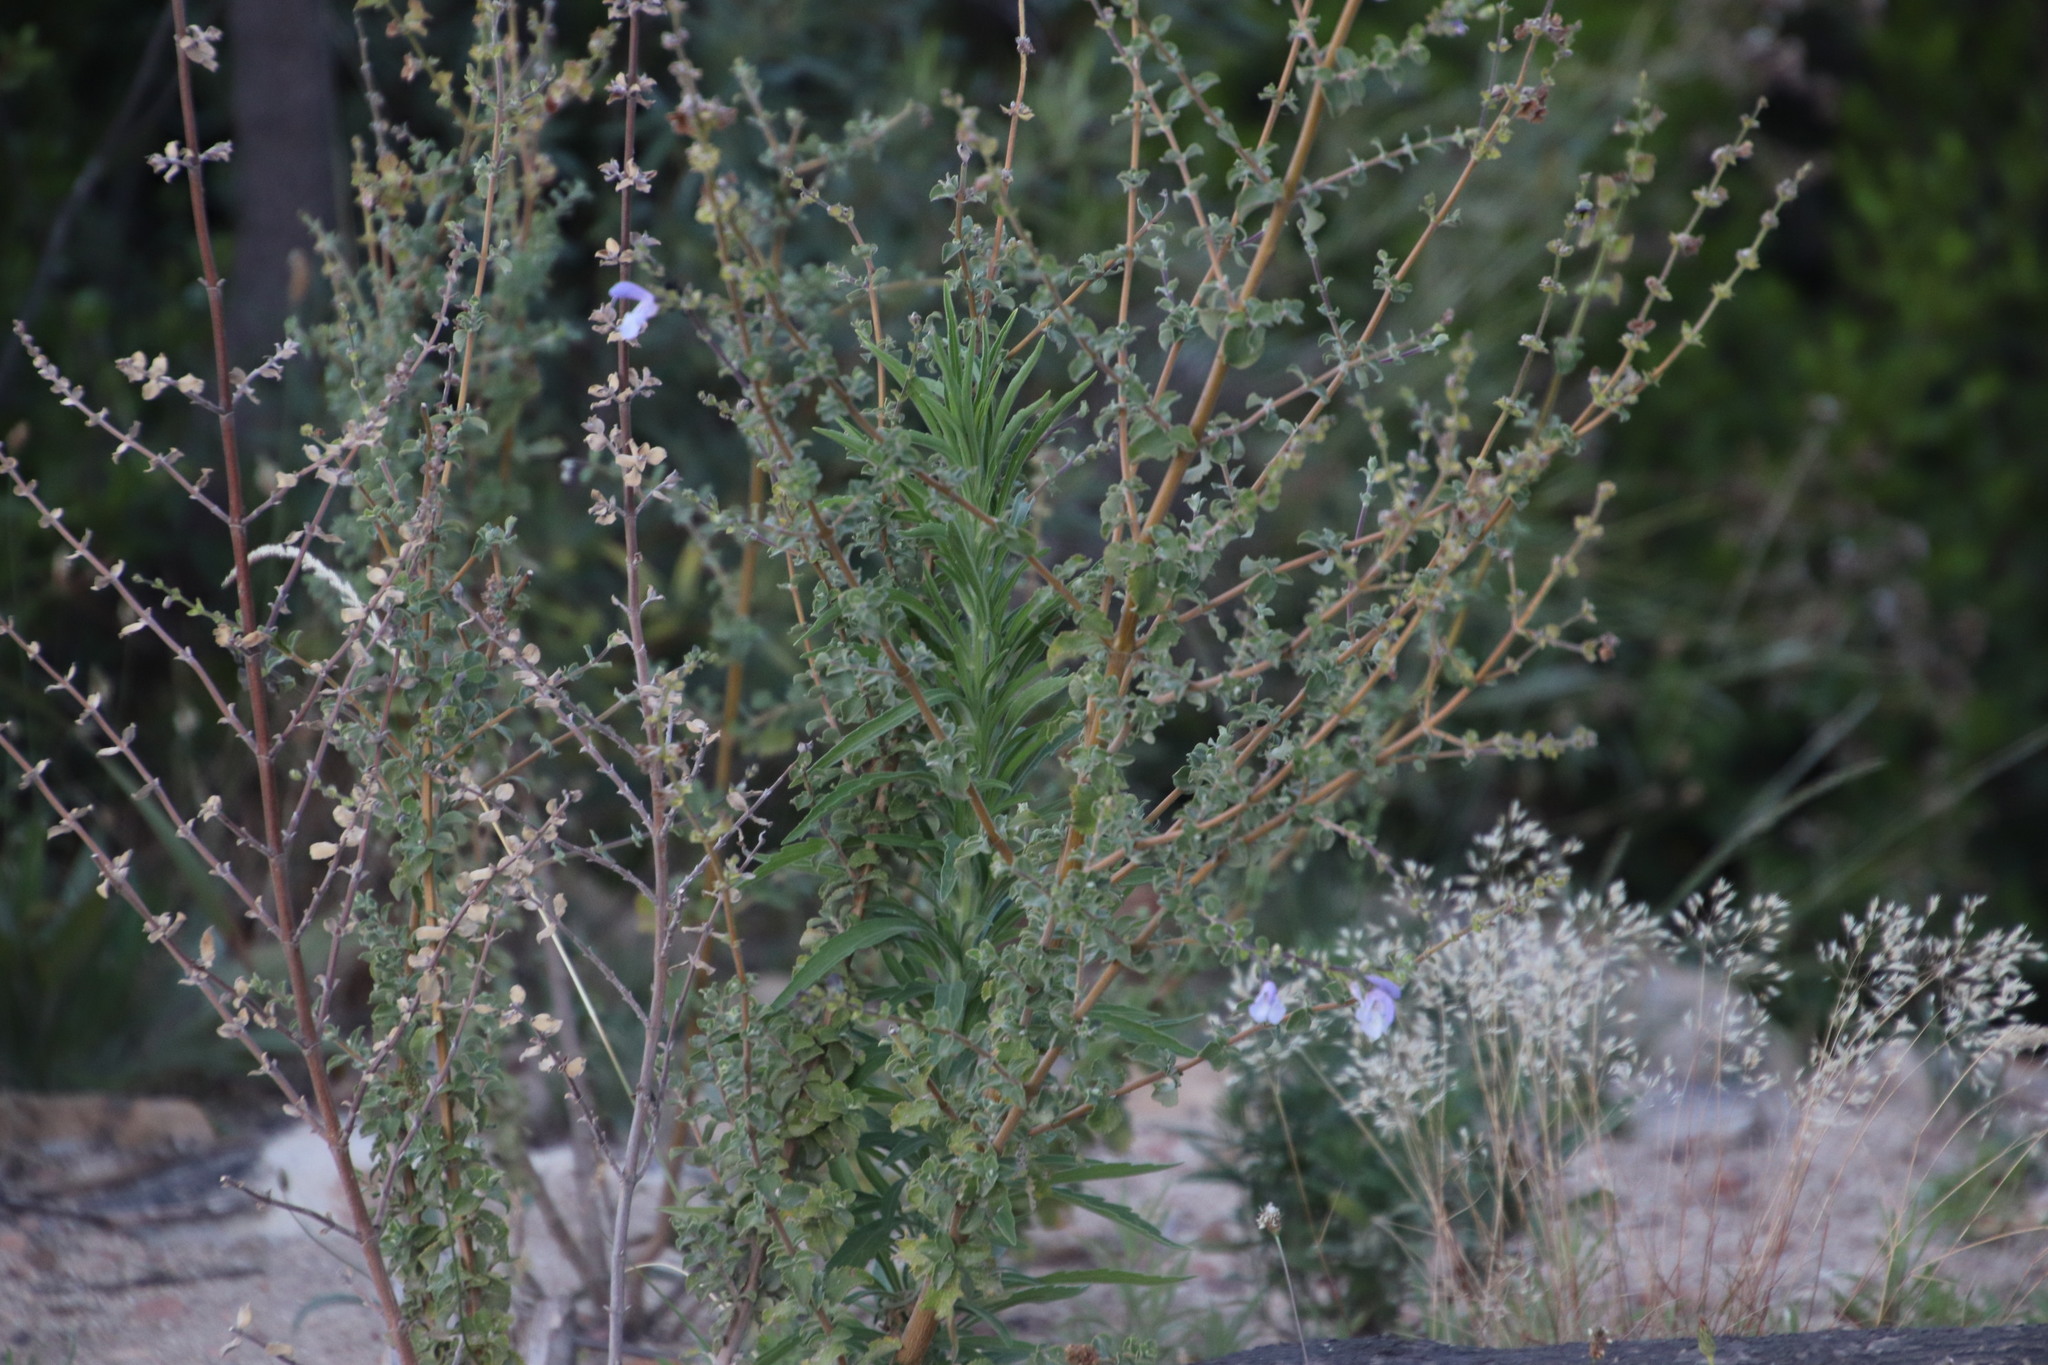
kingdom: Plantae
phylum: Tracheophyta
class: Magnoliopsida
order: Lamiales
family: Lamiaceae
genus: Salvia
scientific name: Salvia africana
